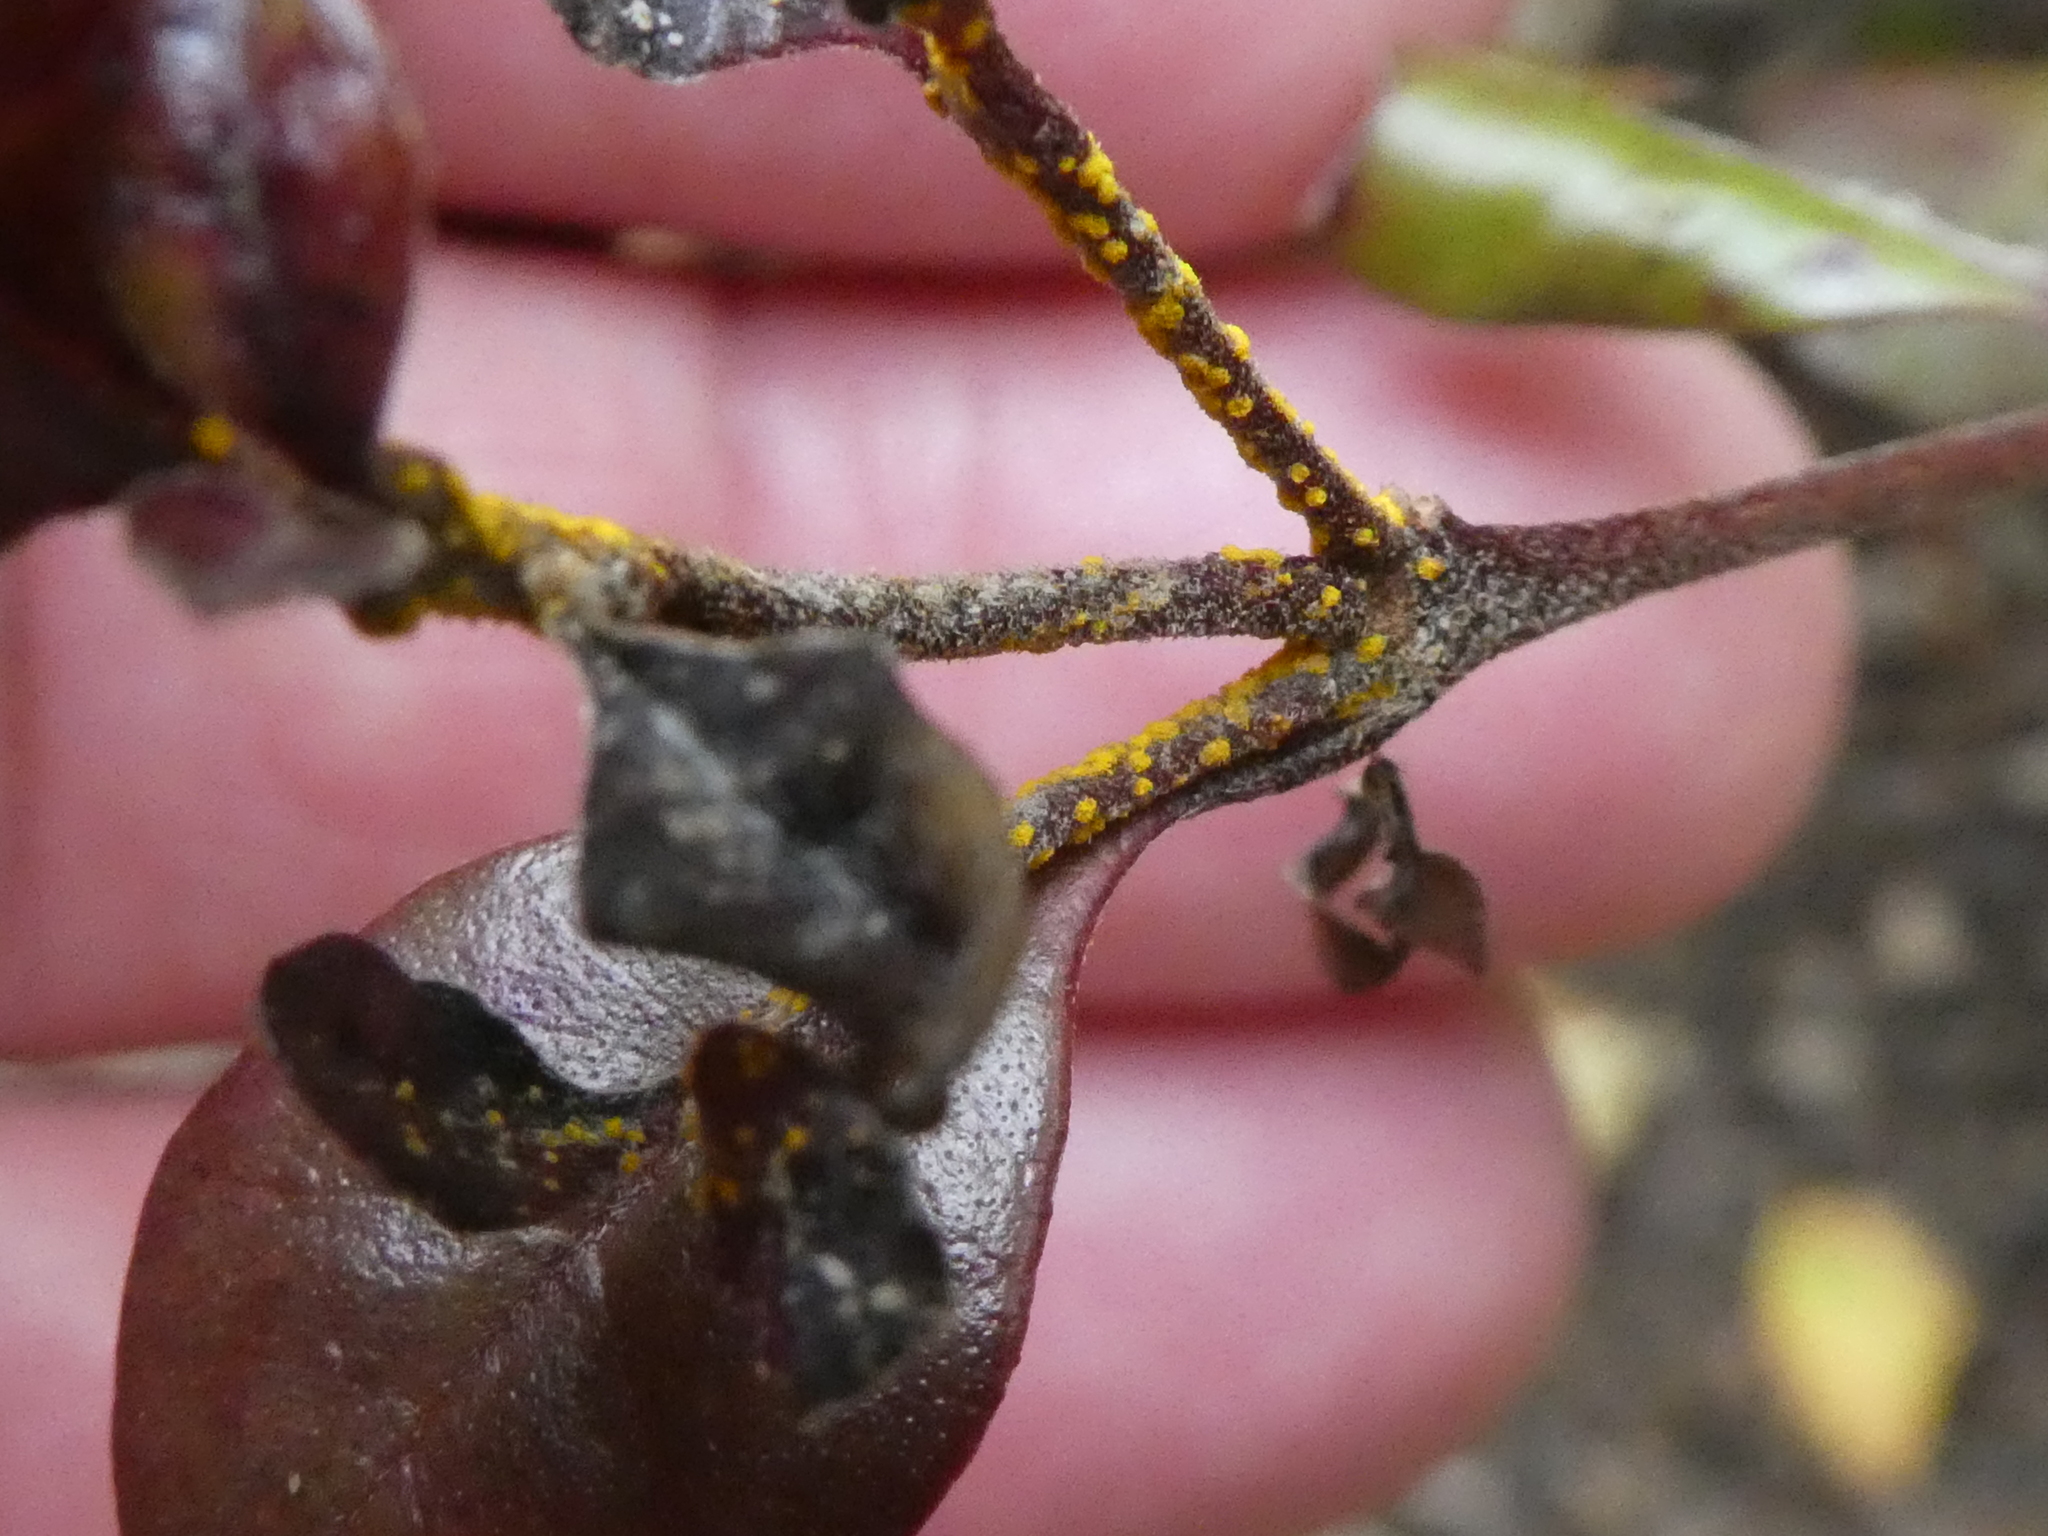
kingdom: Fungi
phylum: Basidiomycota
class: Pucciniomycetes
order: Pucciniales
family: Sphaerophragmiaceae
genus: Austropuccinia
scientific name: Austropuccinia psidii
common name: Myrtle rust
